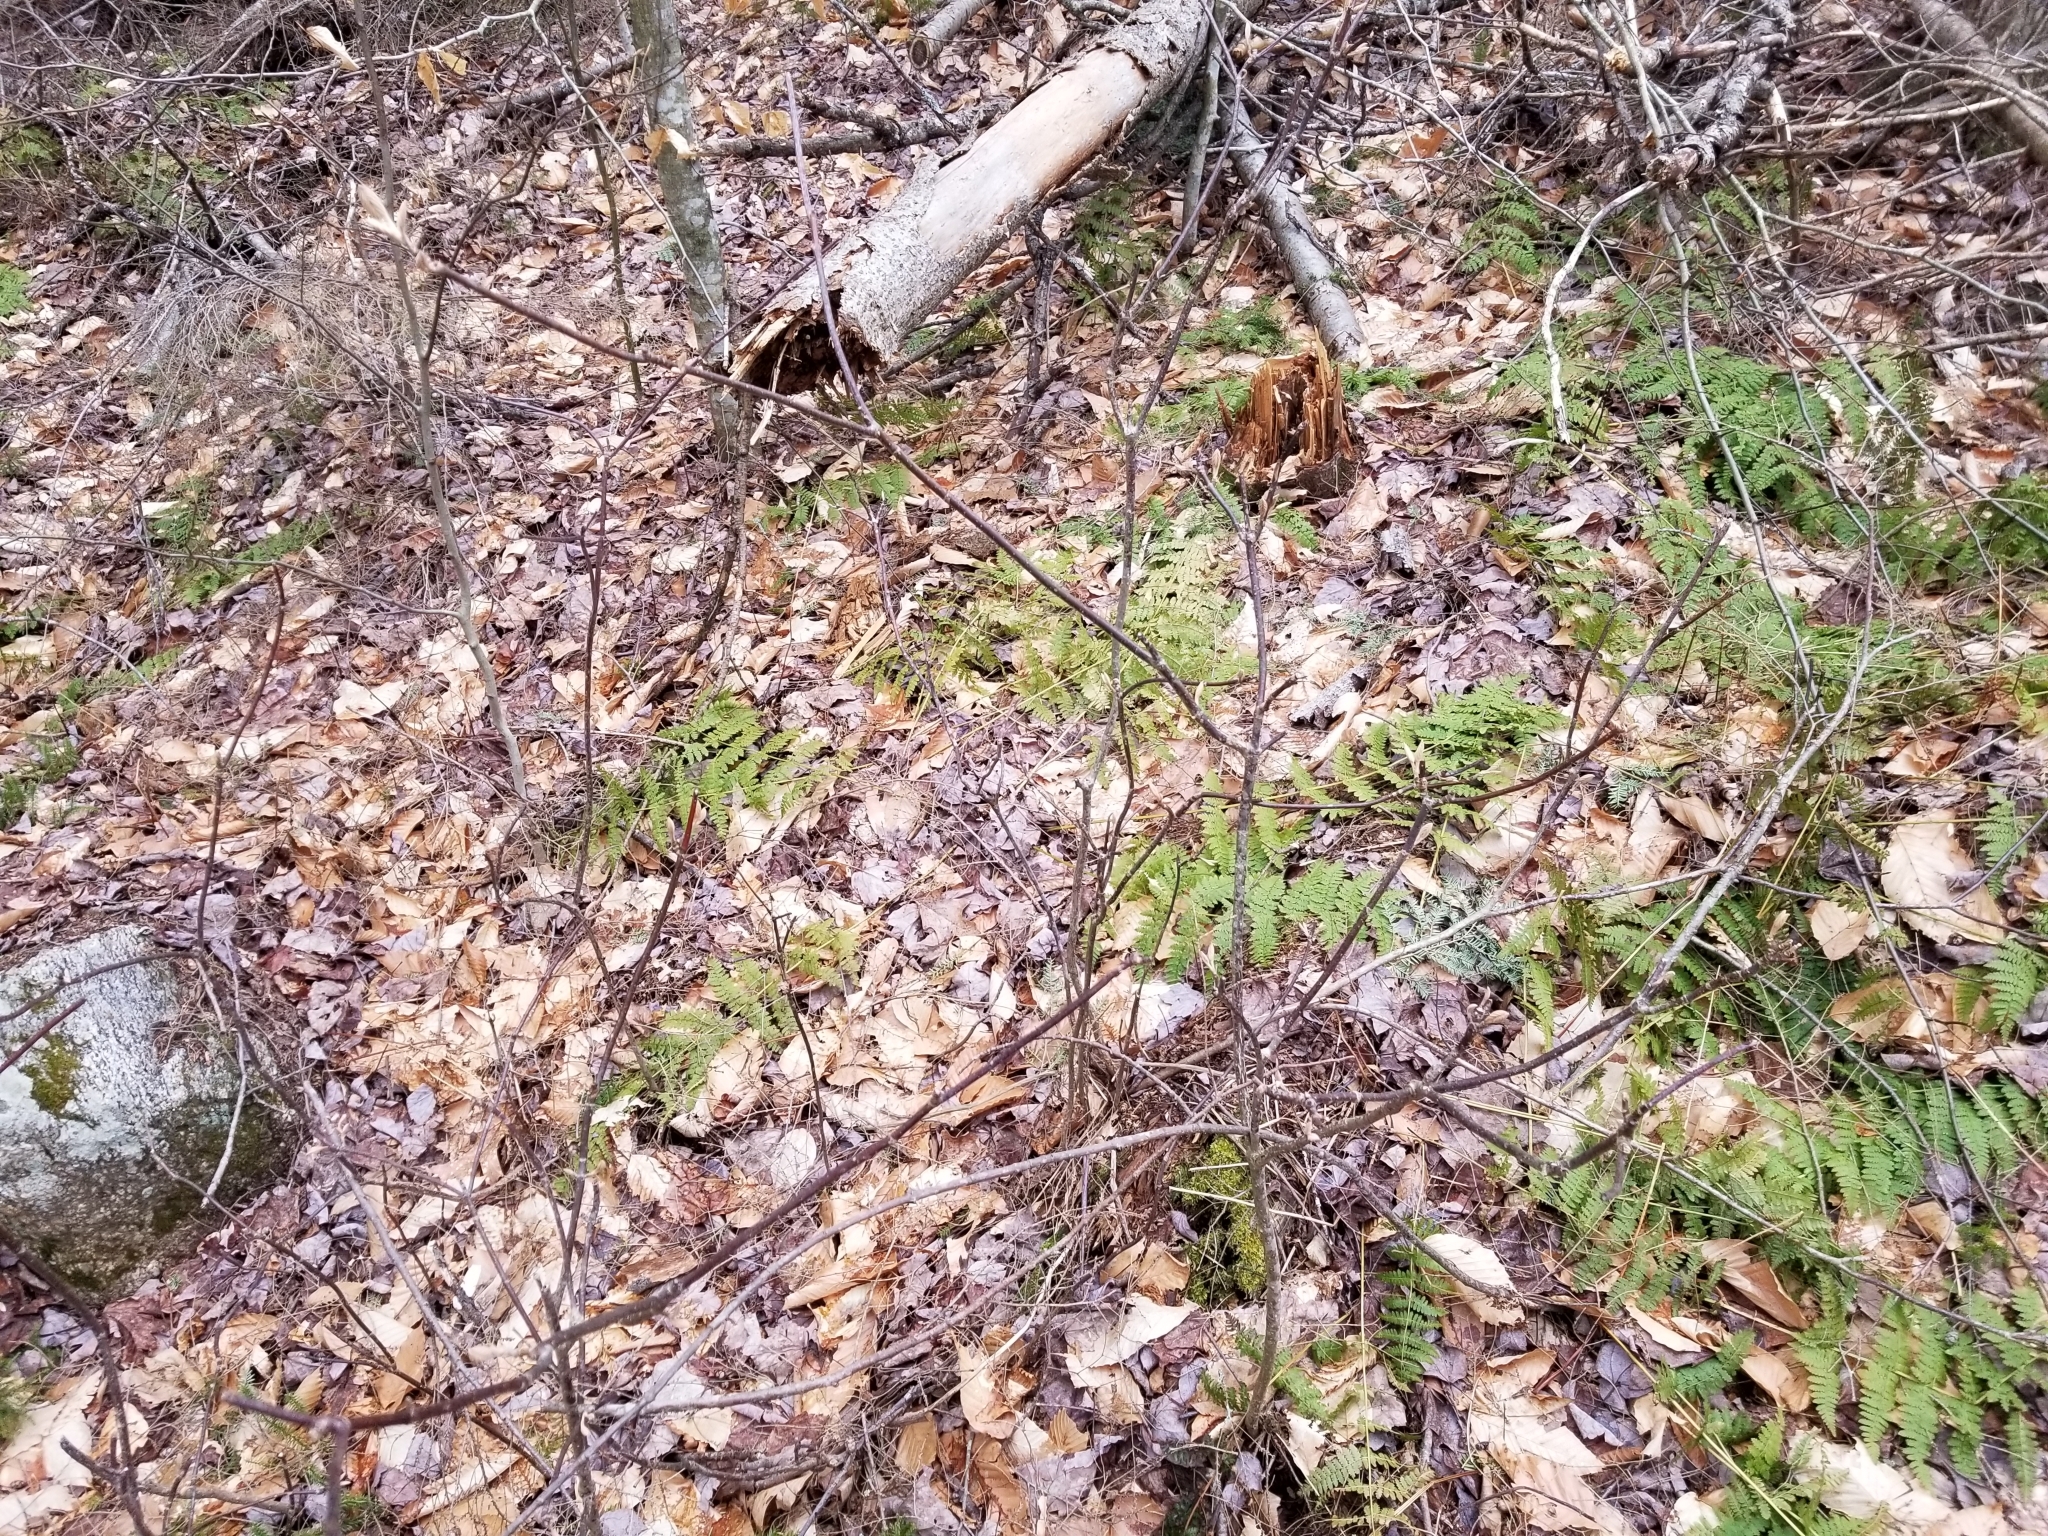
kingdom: Plantae
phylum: Tracheophyta
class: Magnoliopsida
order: Dipsacales
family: Viburnaceae
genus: Viburnum
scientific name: Viburnum lantanoides
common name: Hobblebush
